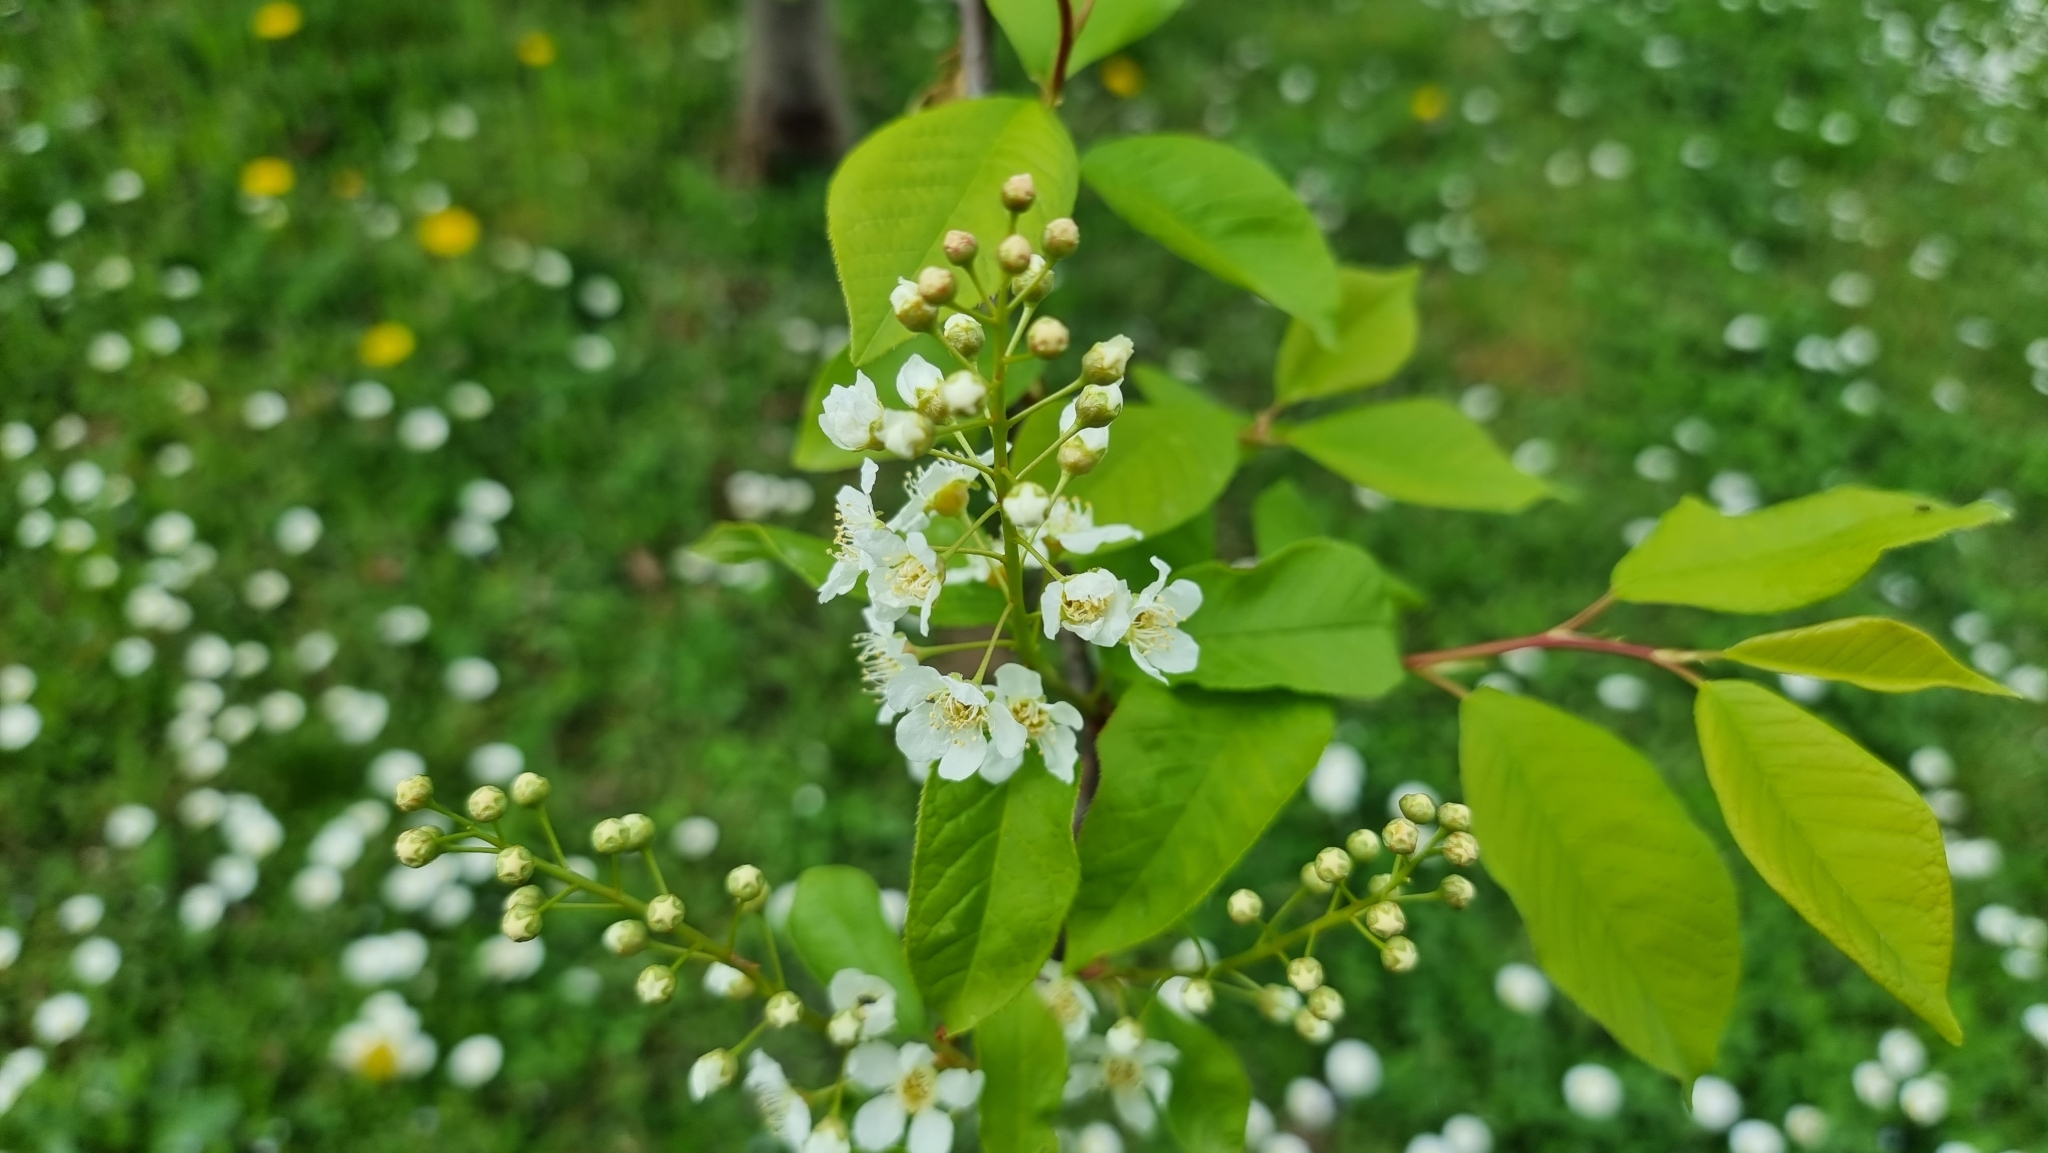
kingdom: Plantae
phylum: Tracheophyta
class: Magnoliopsida
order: Rosales
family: Rosaceae
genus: Prunus
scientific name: Prunus padus
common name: Bird cherry
